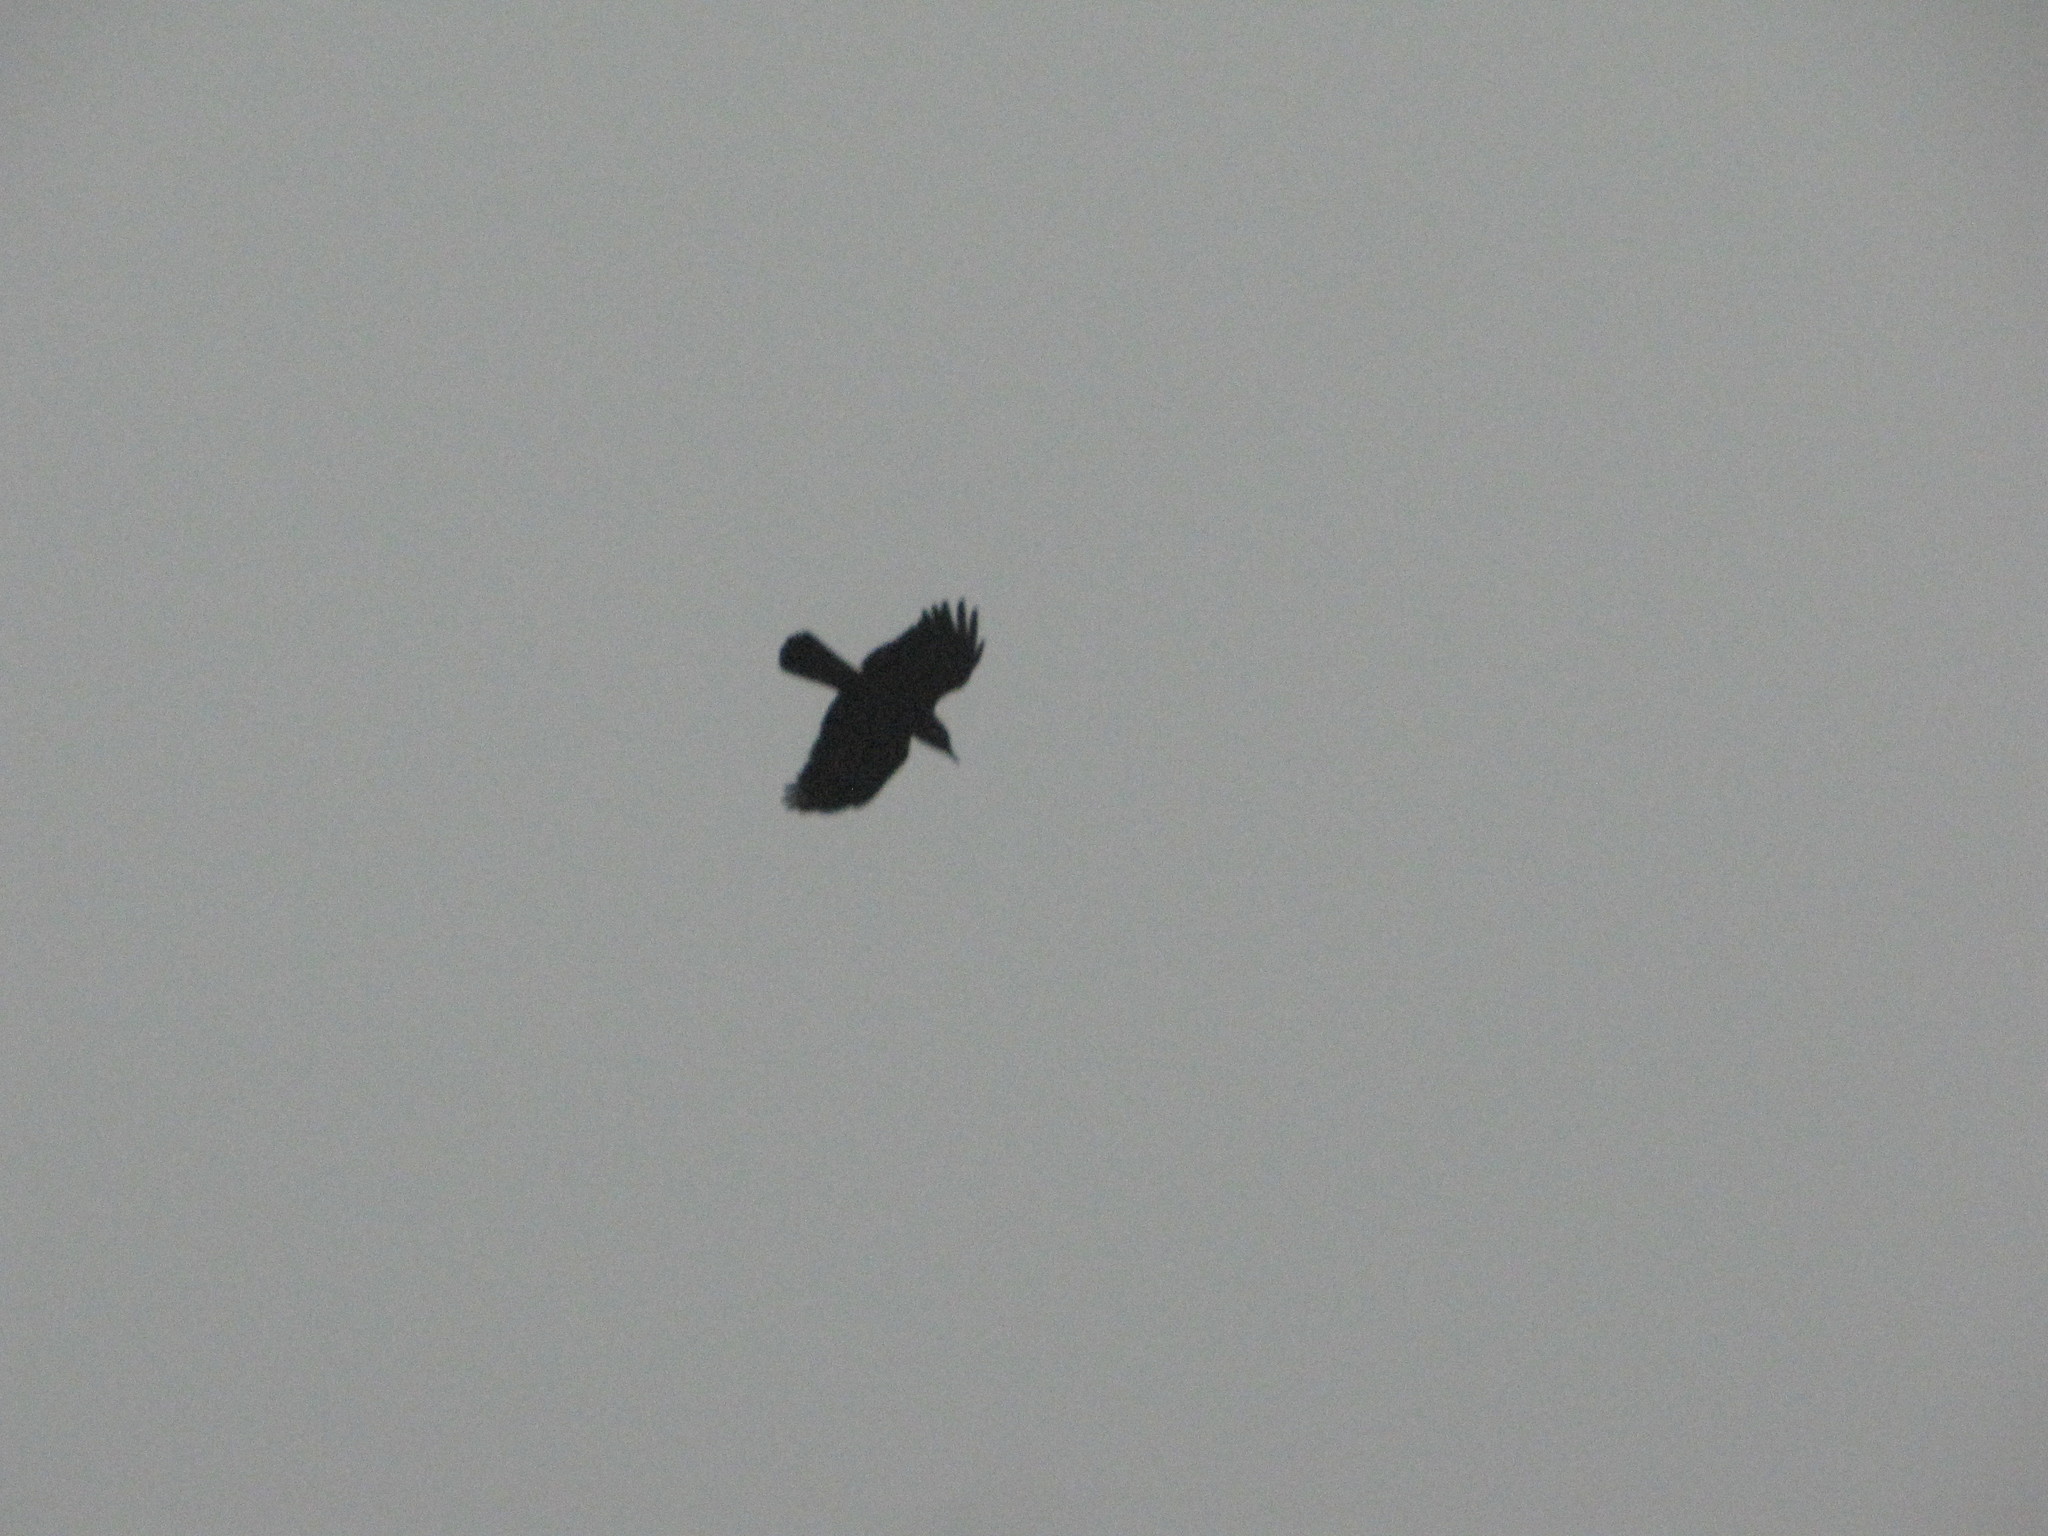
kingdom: Animalia
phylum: Chordata
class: Aves
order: Passeriformes
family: Corvidae
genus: Corvus
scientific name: Corvus brachyrhynchos
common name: American crow
